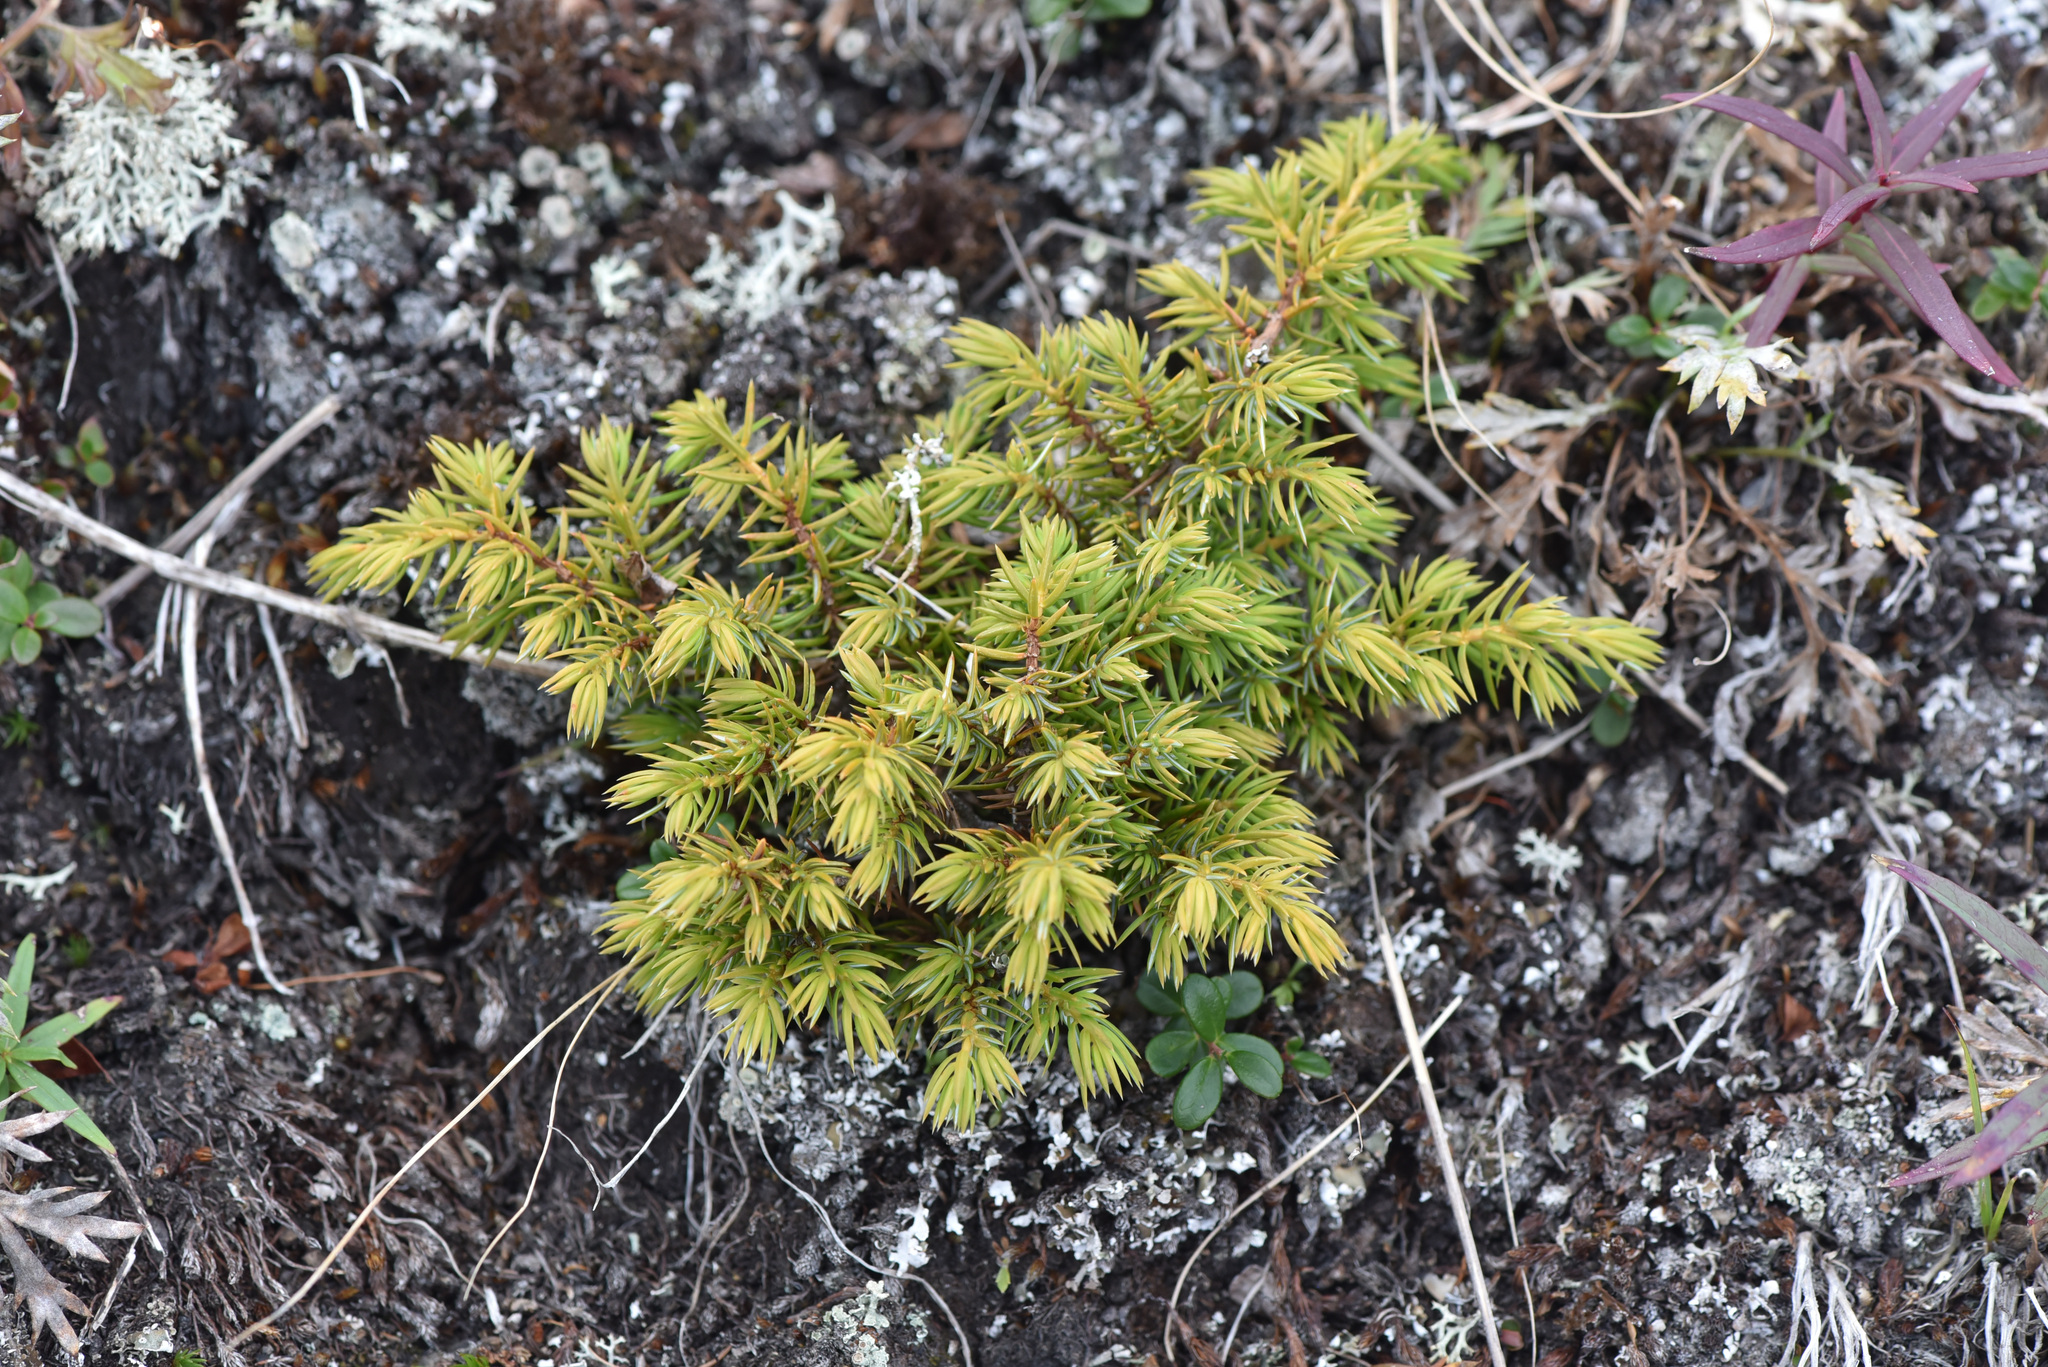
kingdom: Plantae
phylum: Tracheophyta
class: Pinopsida
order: Pinales
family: Cupressaceae
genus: Juniperus
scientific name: Juniperus communis
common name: Common juniper
